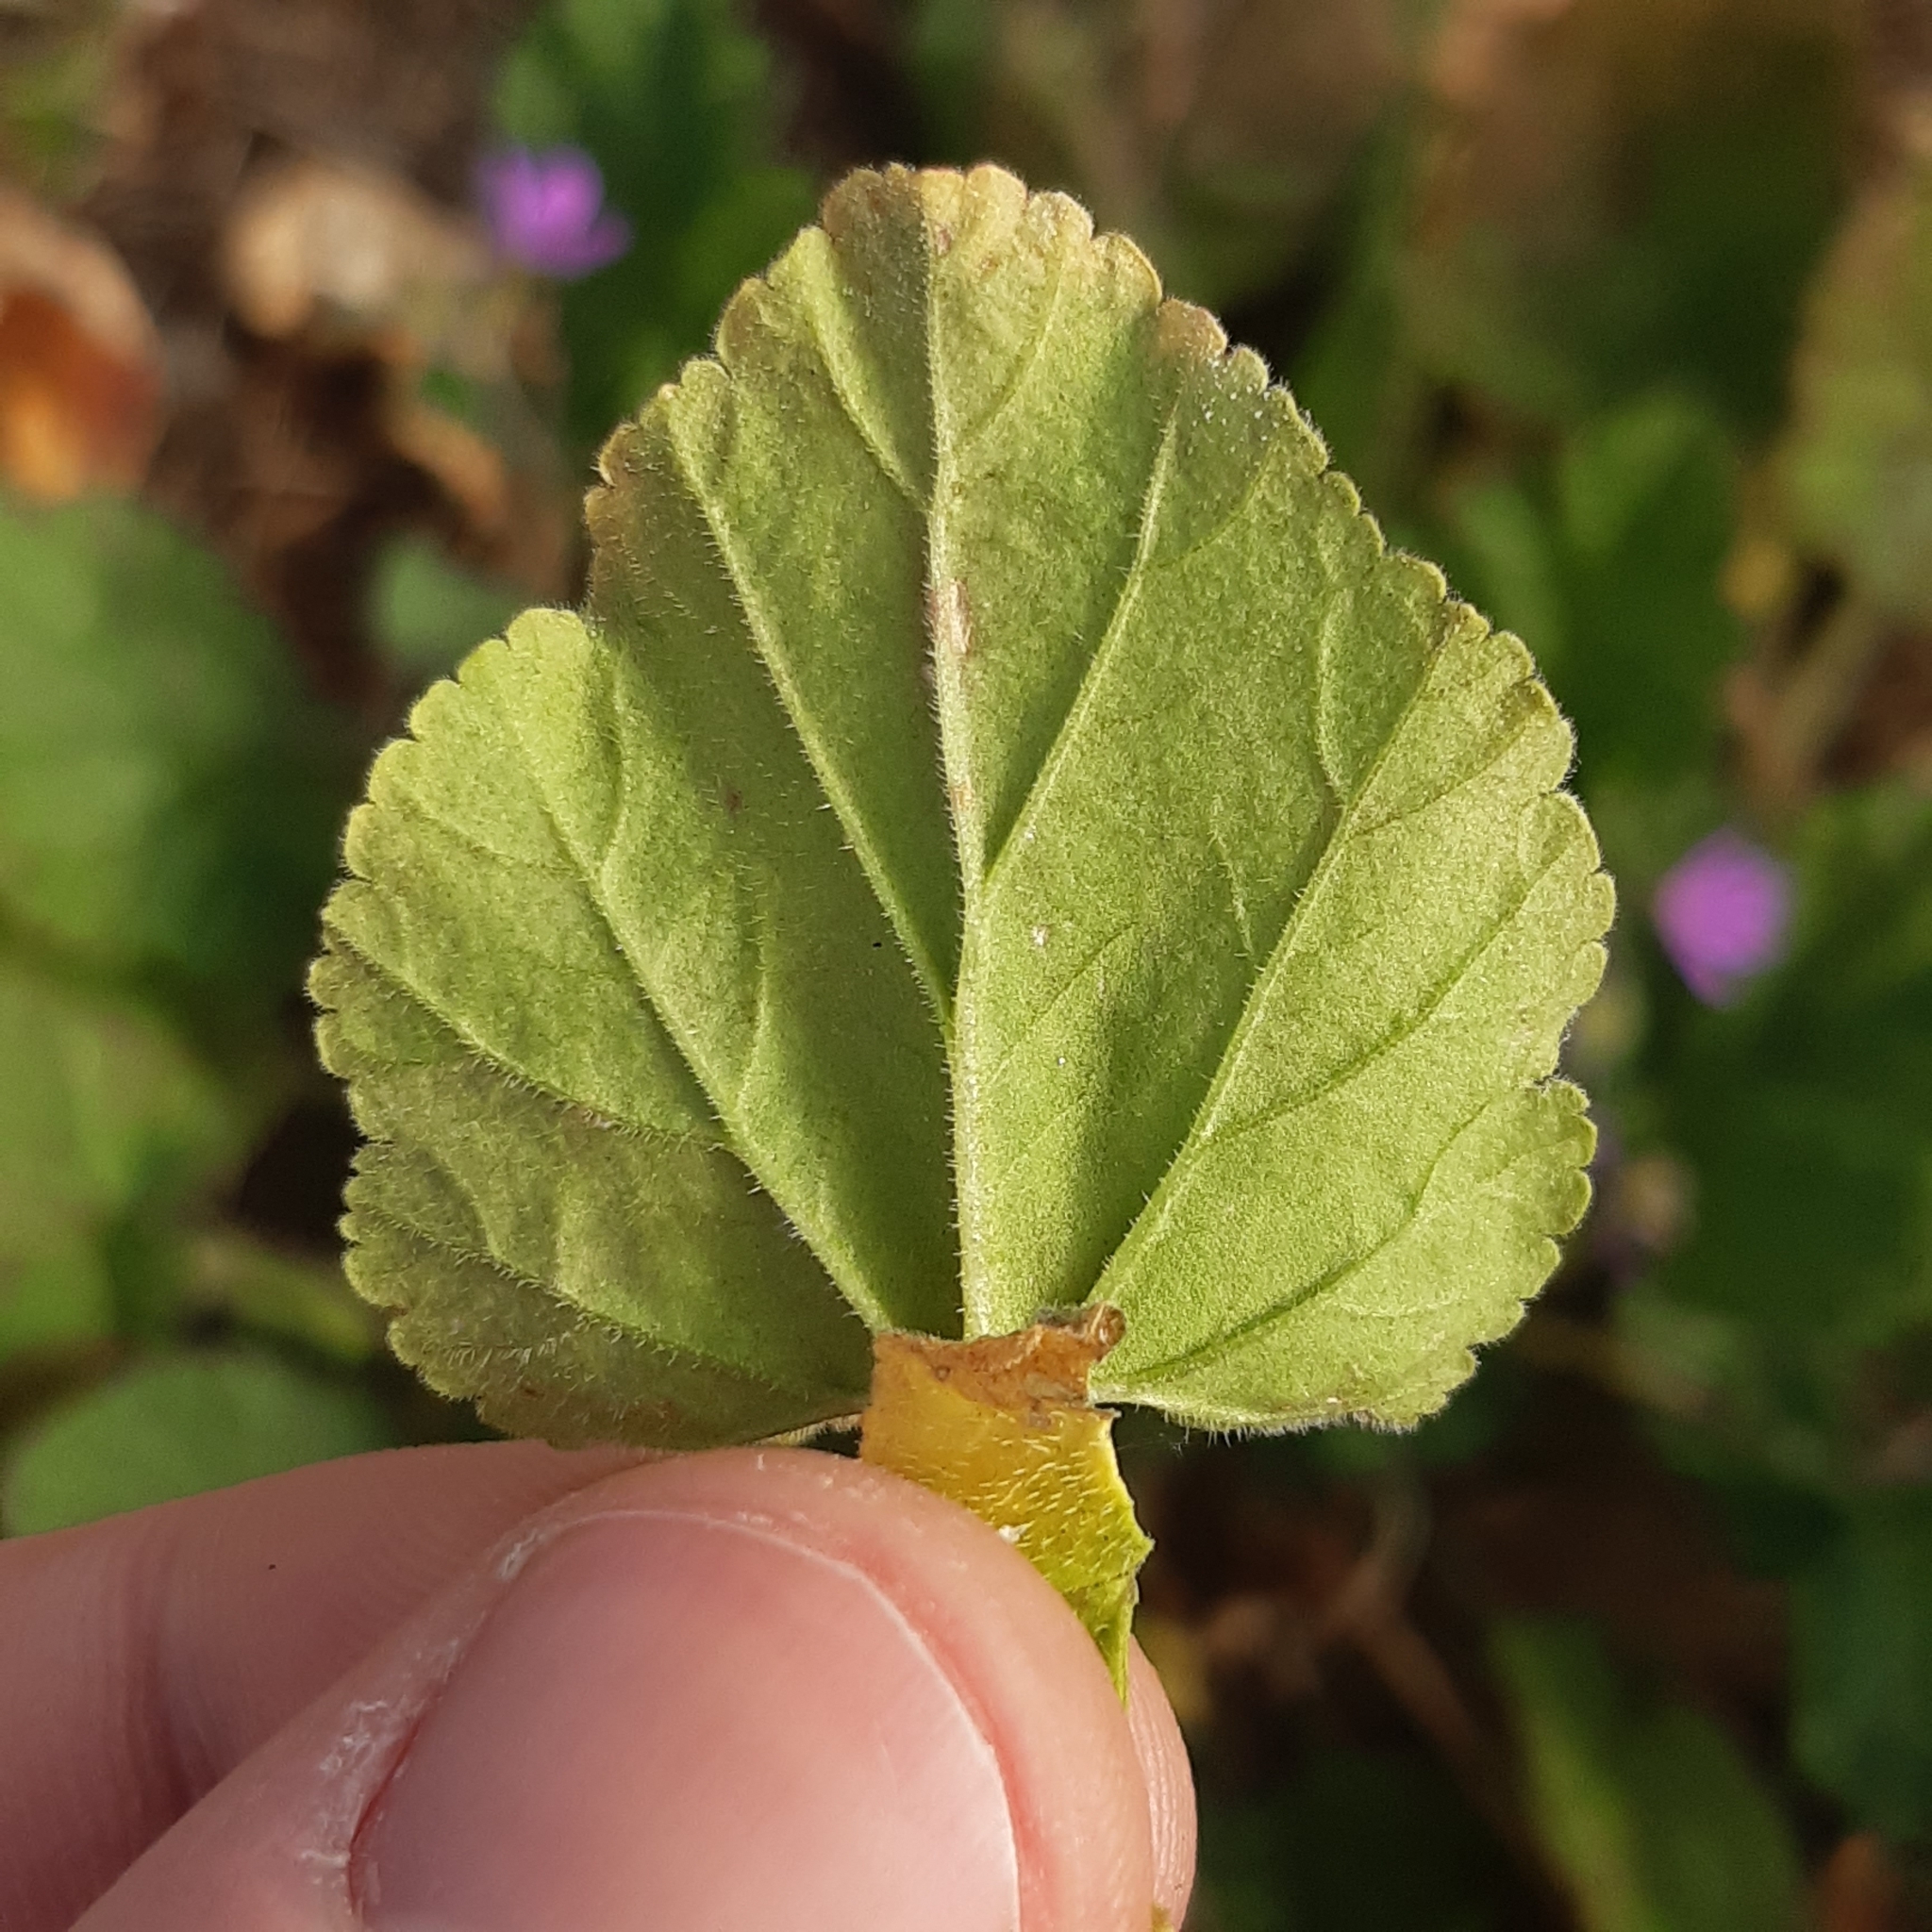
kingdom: Plantae
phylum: Tracheophyta
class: Magnoliopsida
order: Geraniales
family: Geraniaceae
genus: Erodium
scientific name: Erodium malacoides
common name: Soft stork's-bill
